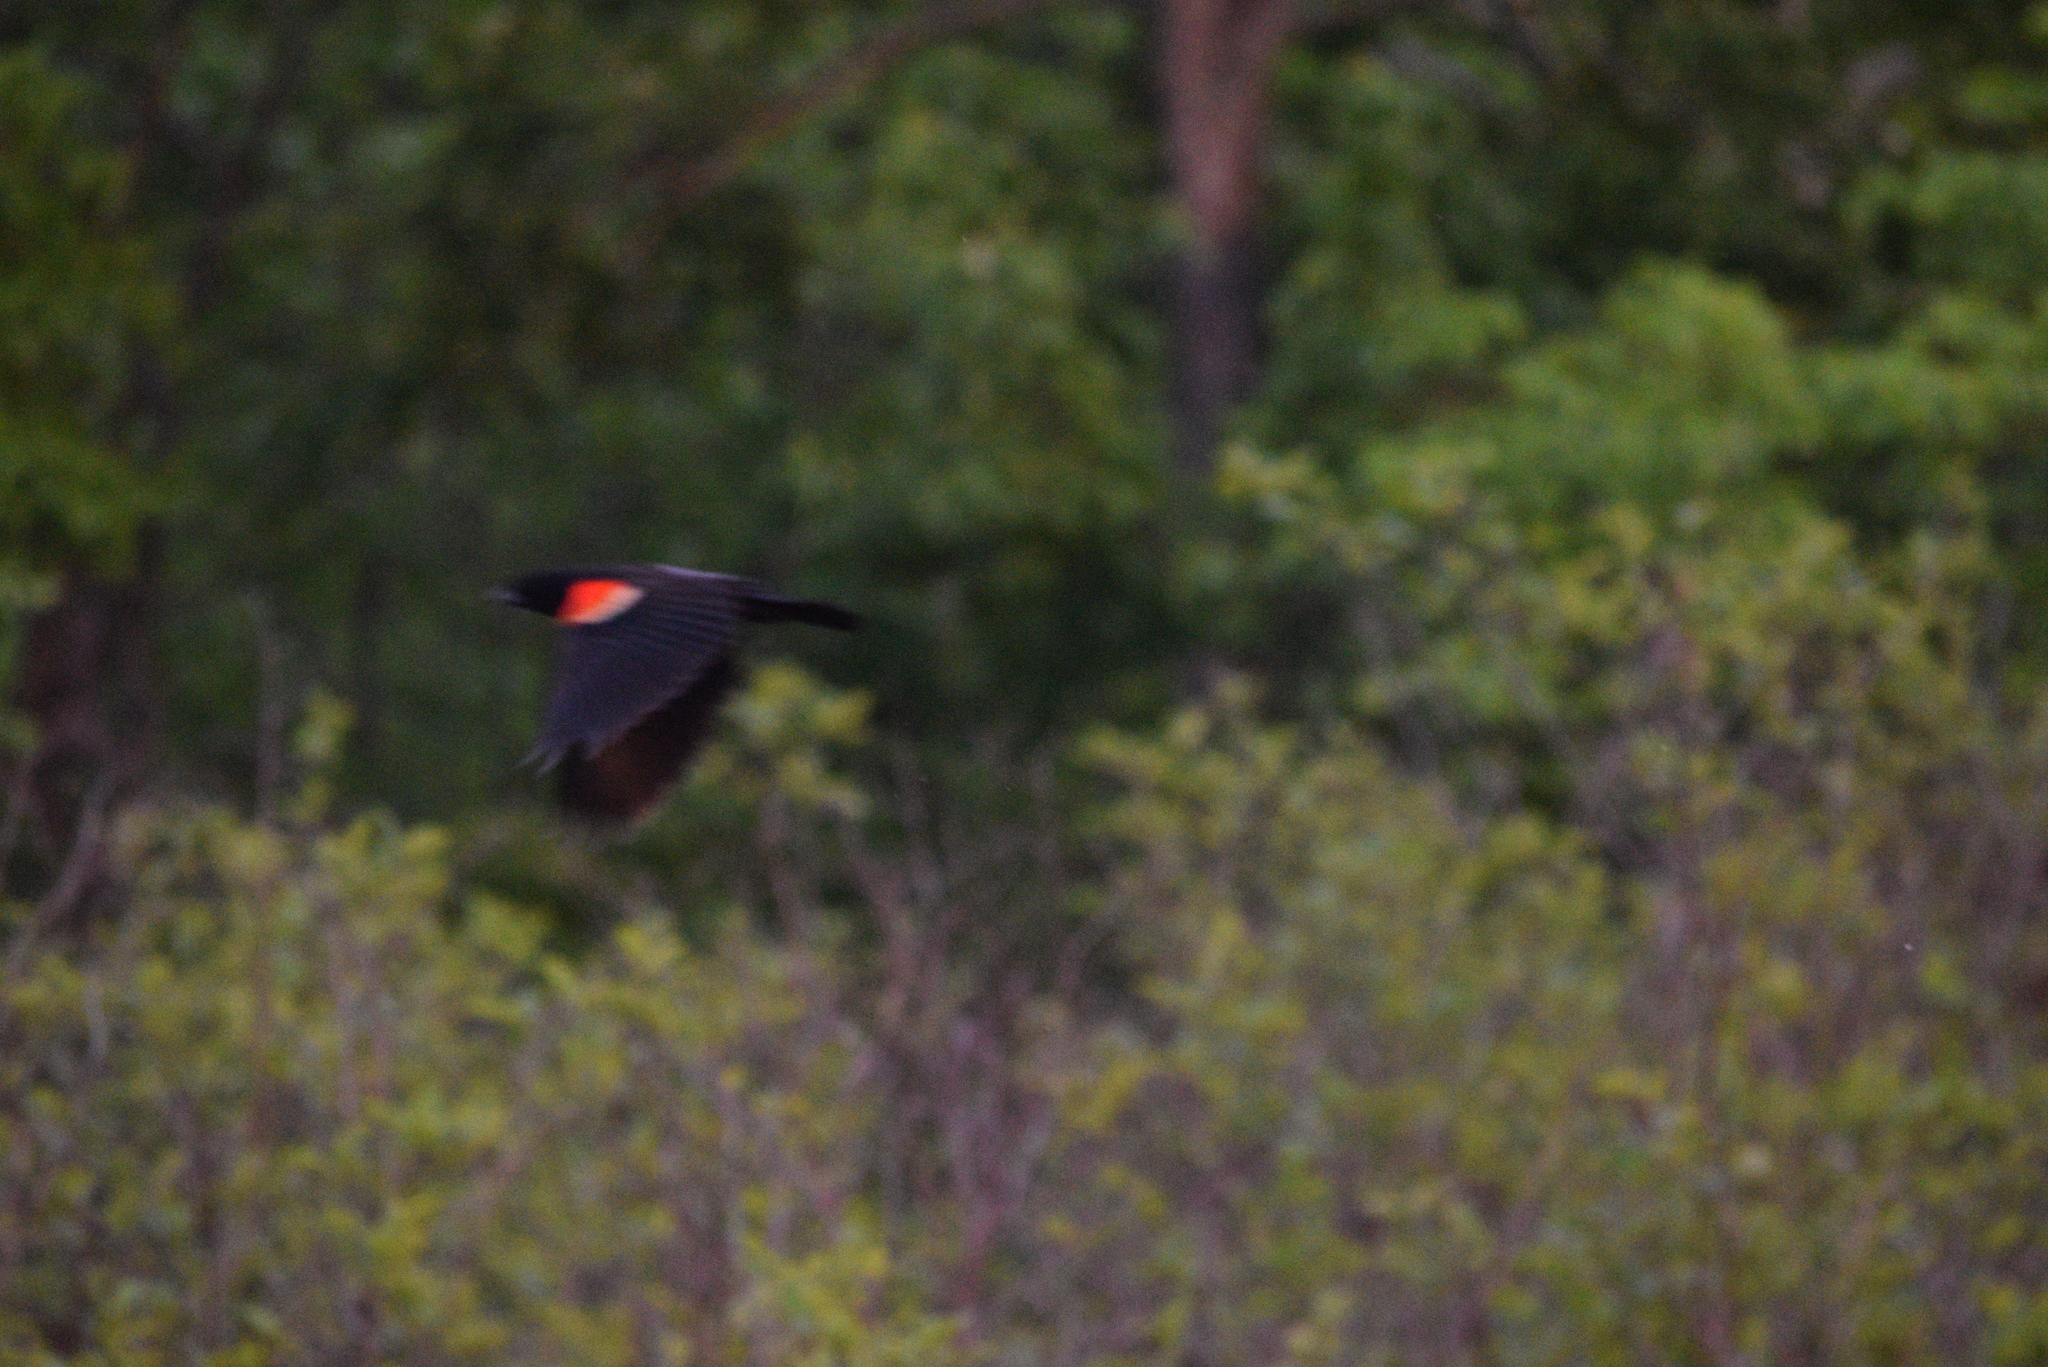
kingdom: Animalia
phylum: Chordata
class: Aves
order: Passeriformes
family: Icteridae
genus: Agelaius
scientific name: Agelaius phoeniceus
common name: Red-winged blackbird
